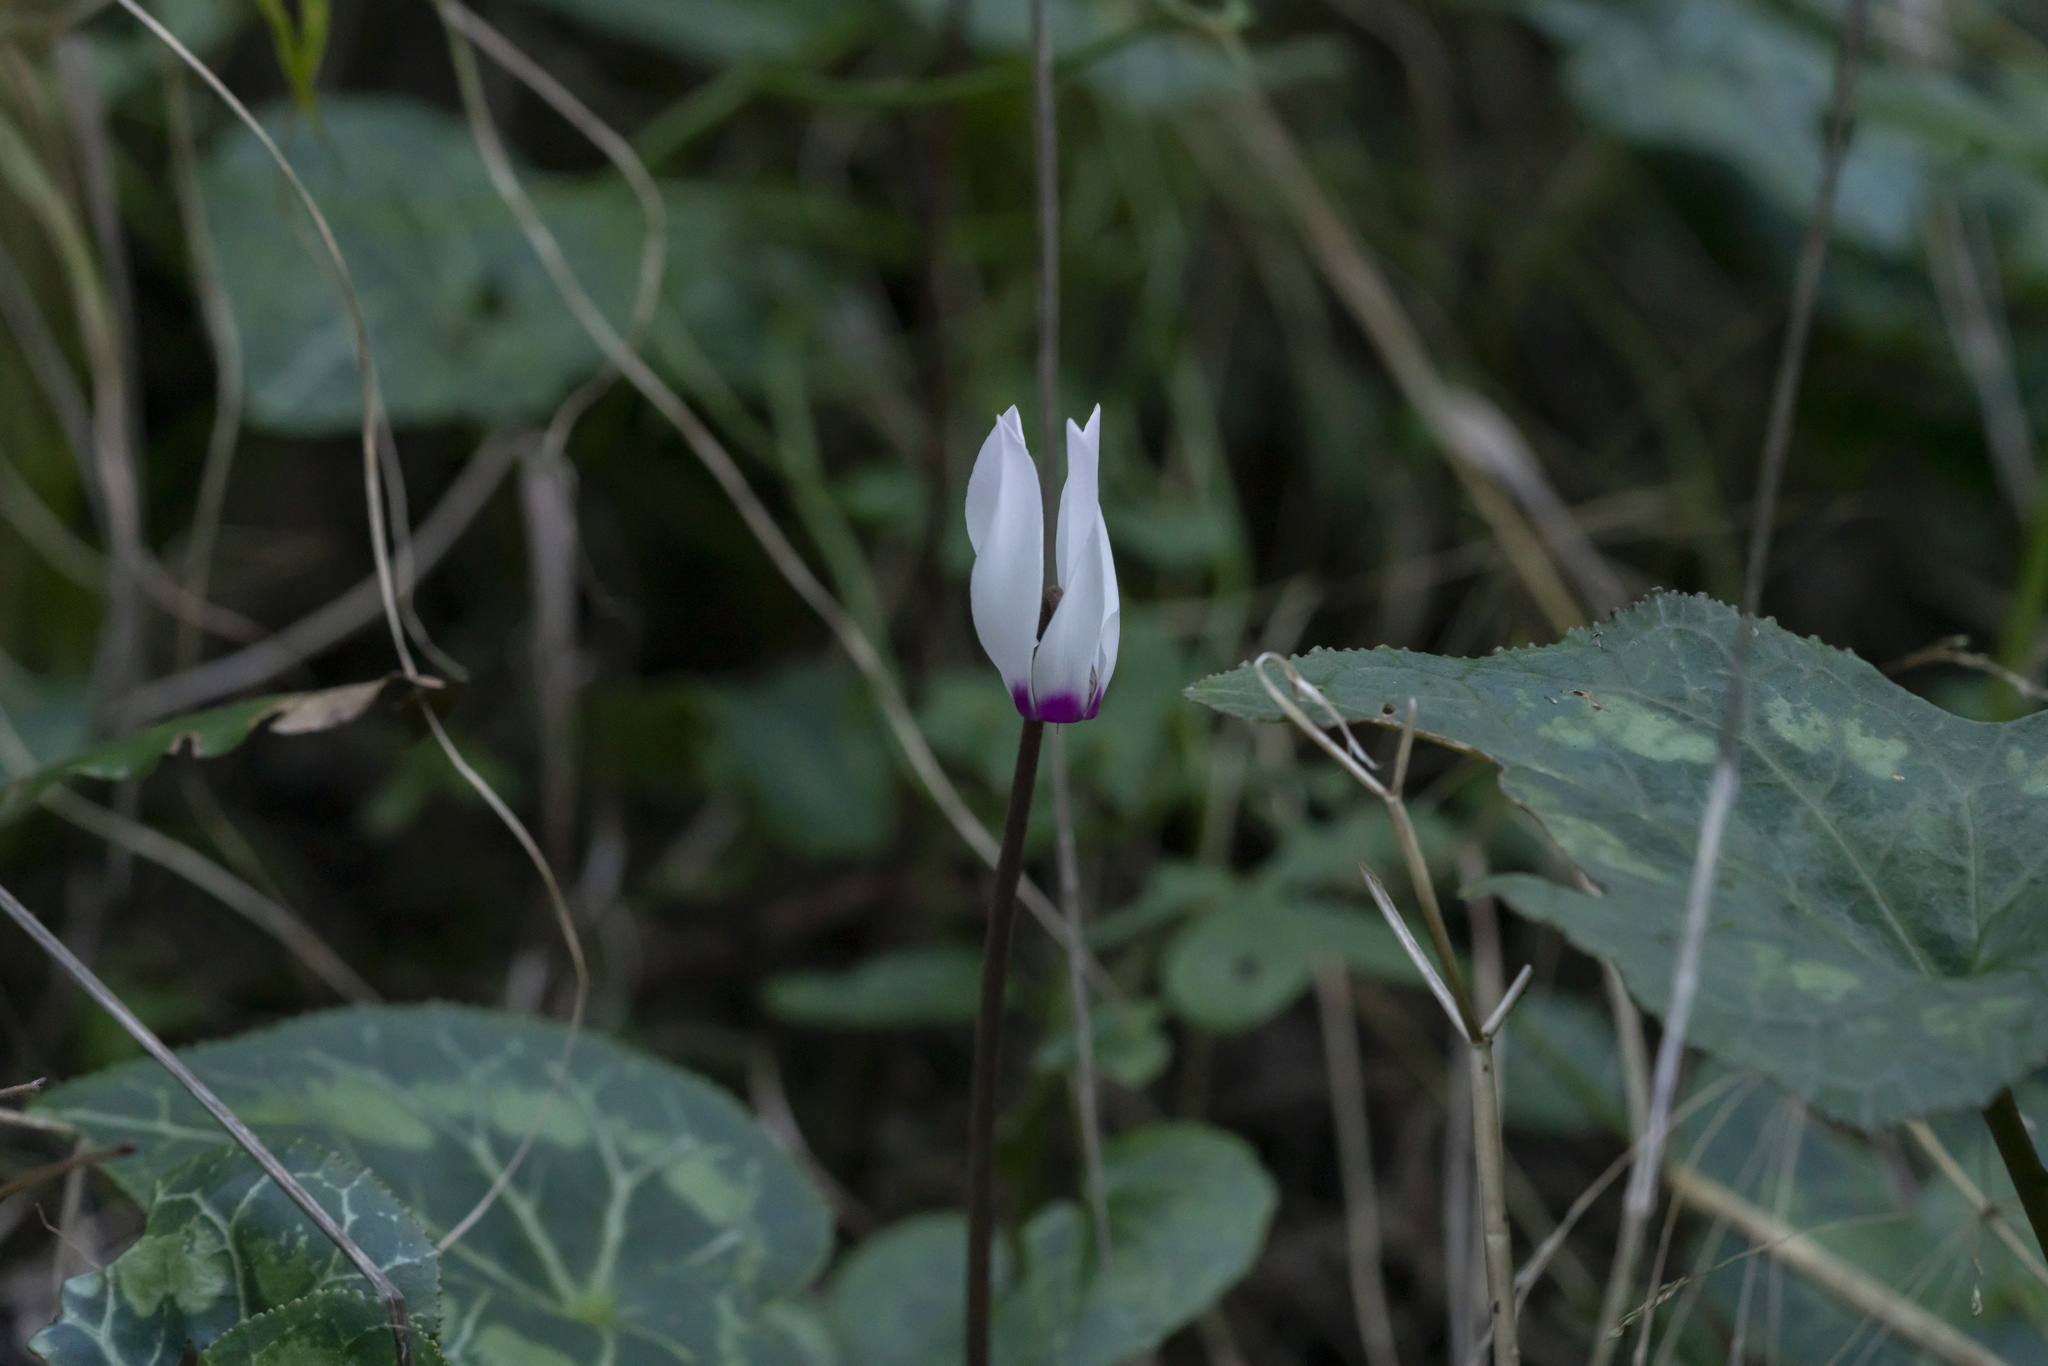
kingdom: Plantae
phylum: Tracheophyta
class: Magnoliopsida
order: Ericales
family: Primulaceae
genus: Cyclamen
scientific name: Cyclamen persicum
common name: Florist's cyclamen
